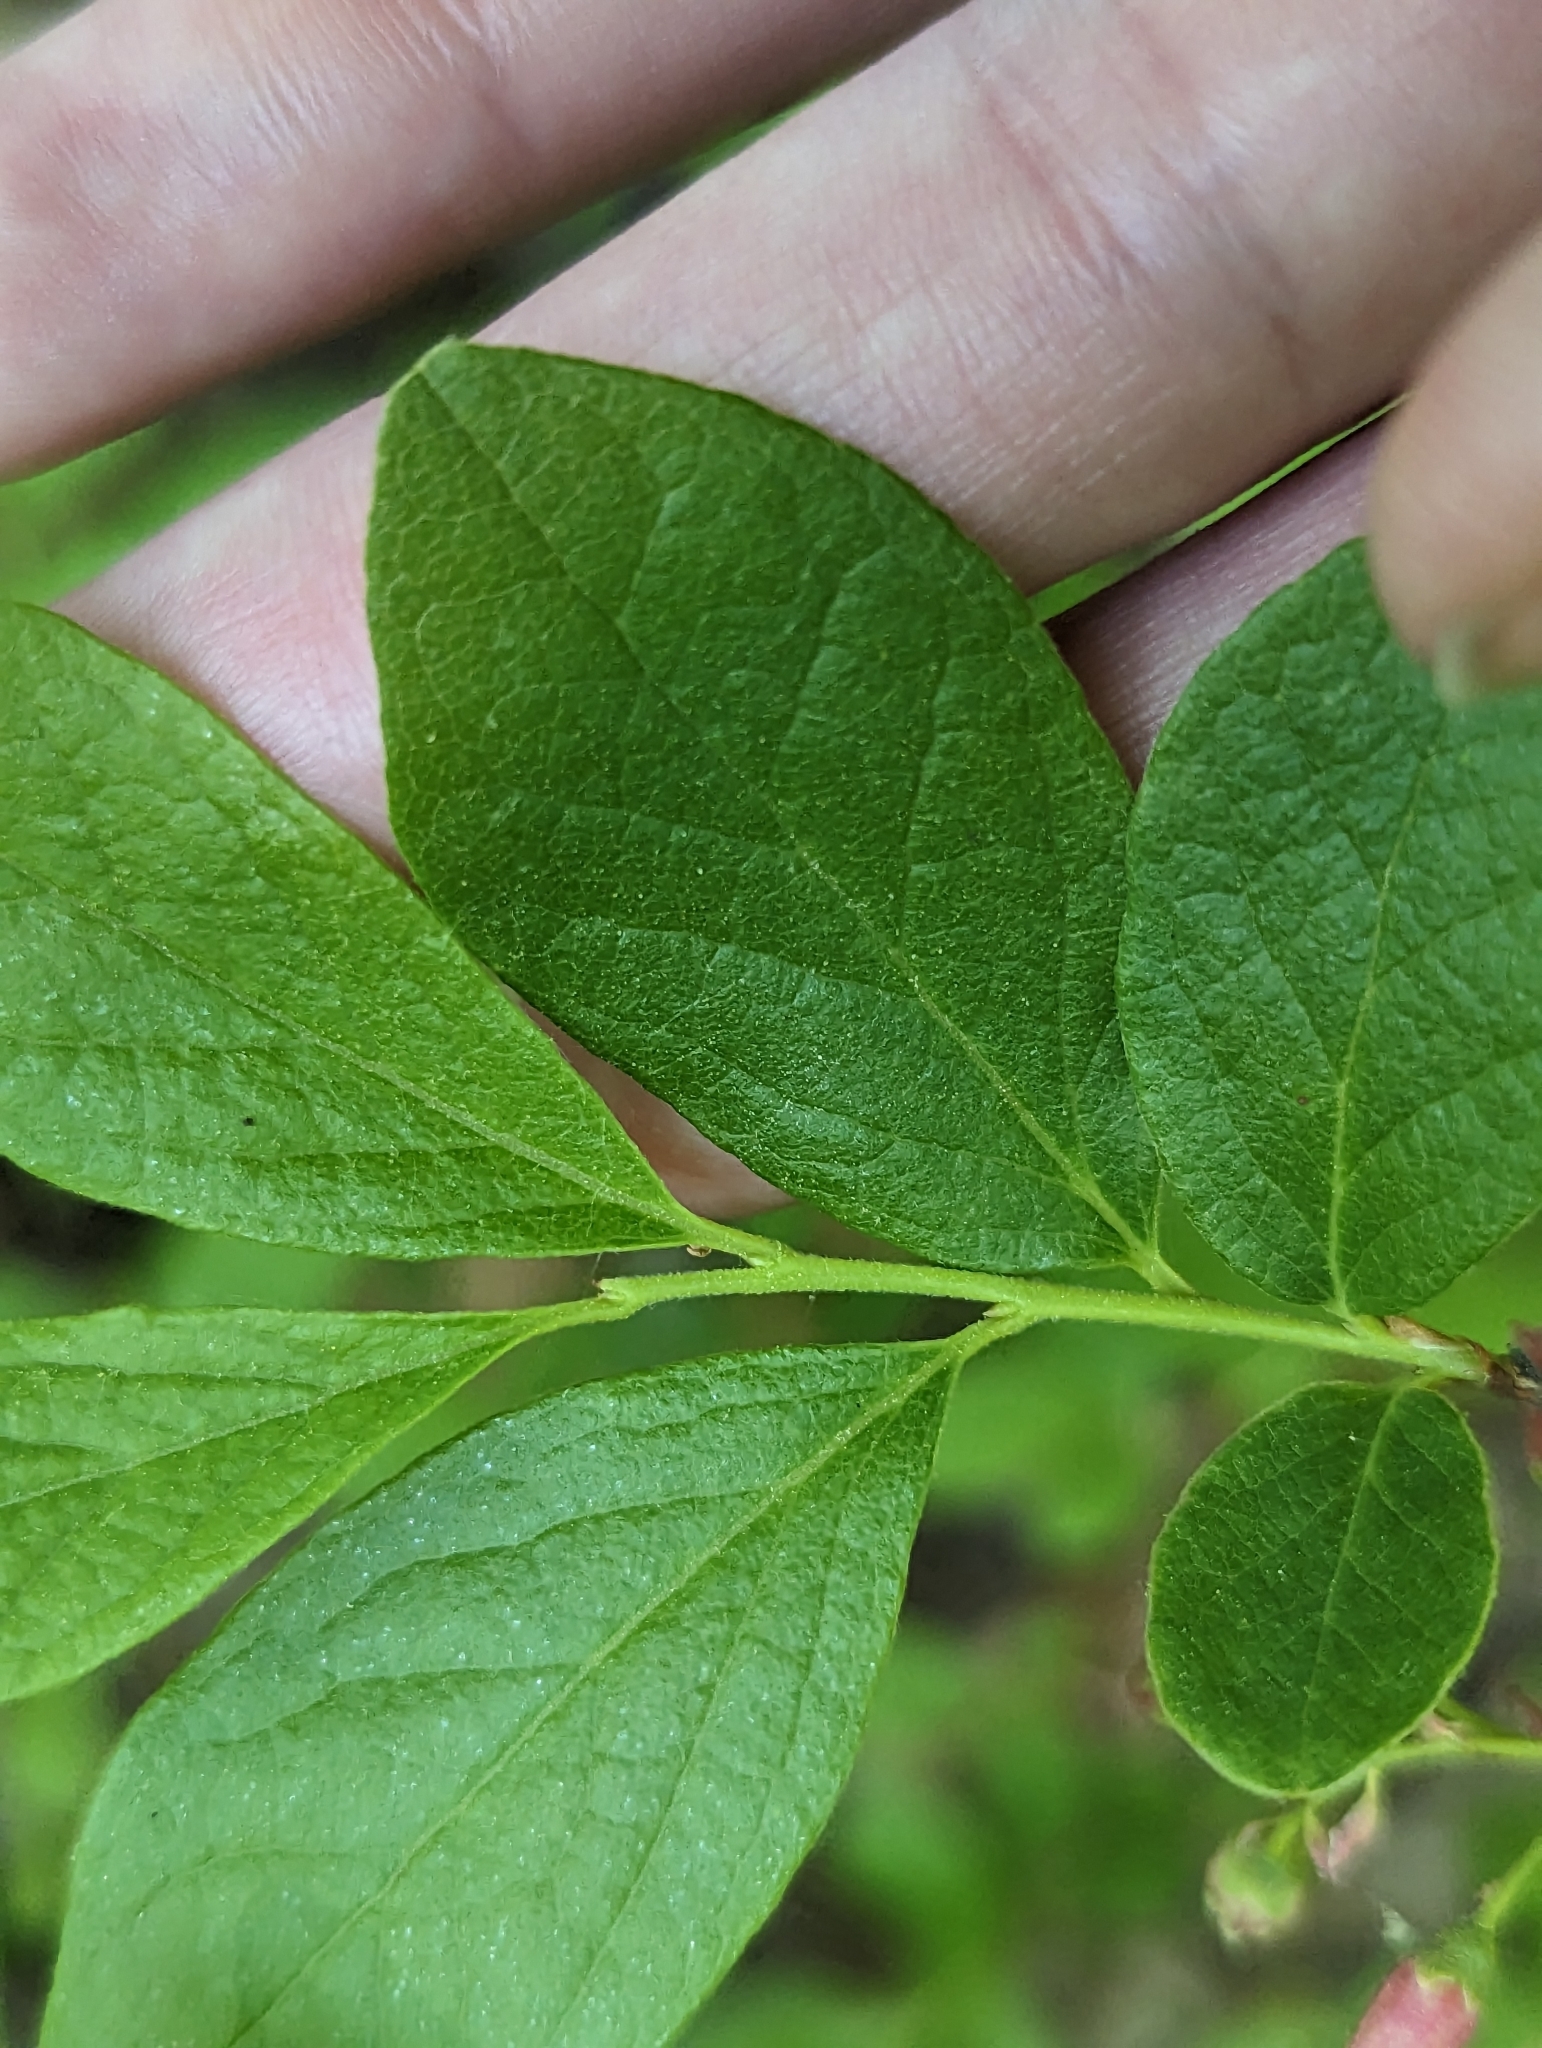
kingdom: Plantae
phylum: Tracheophyta
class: Magnoliopsida
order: Ericales
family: Ericaceae
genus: Gaylussacia
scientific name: Gaylussacia baccata
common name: Black huckleberry
